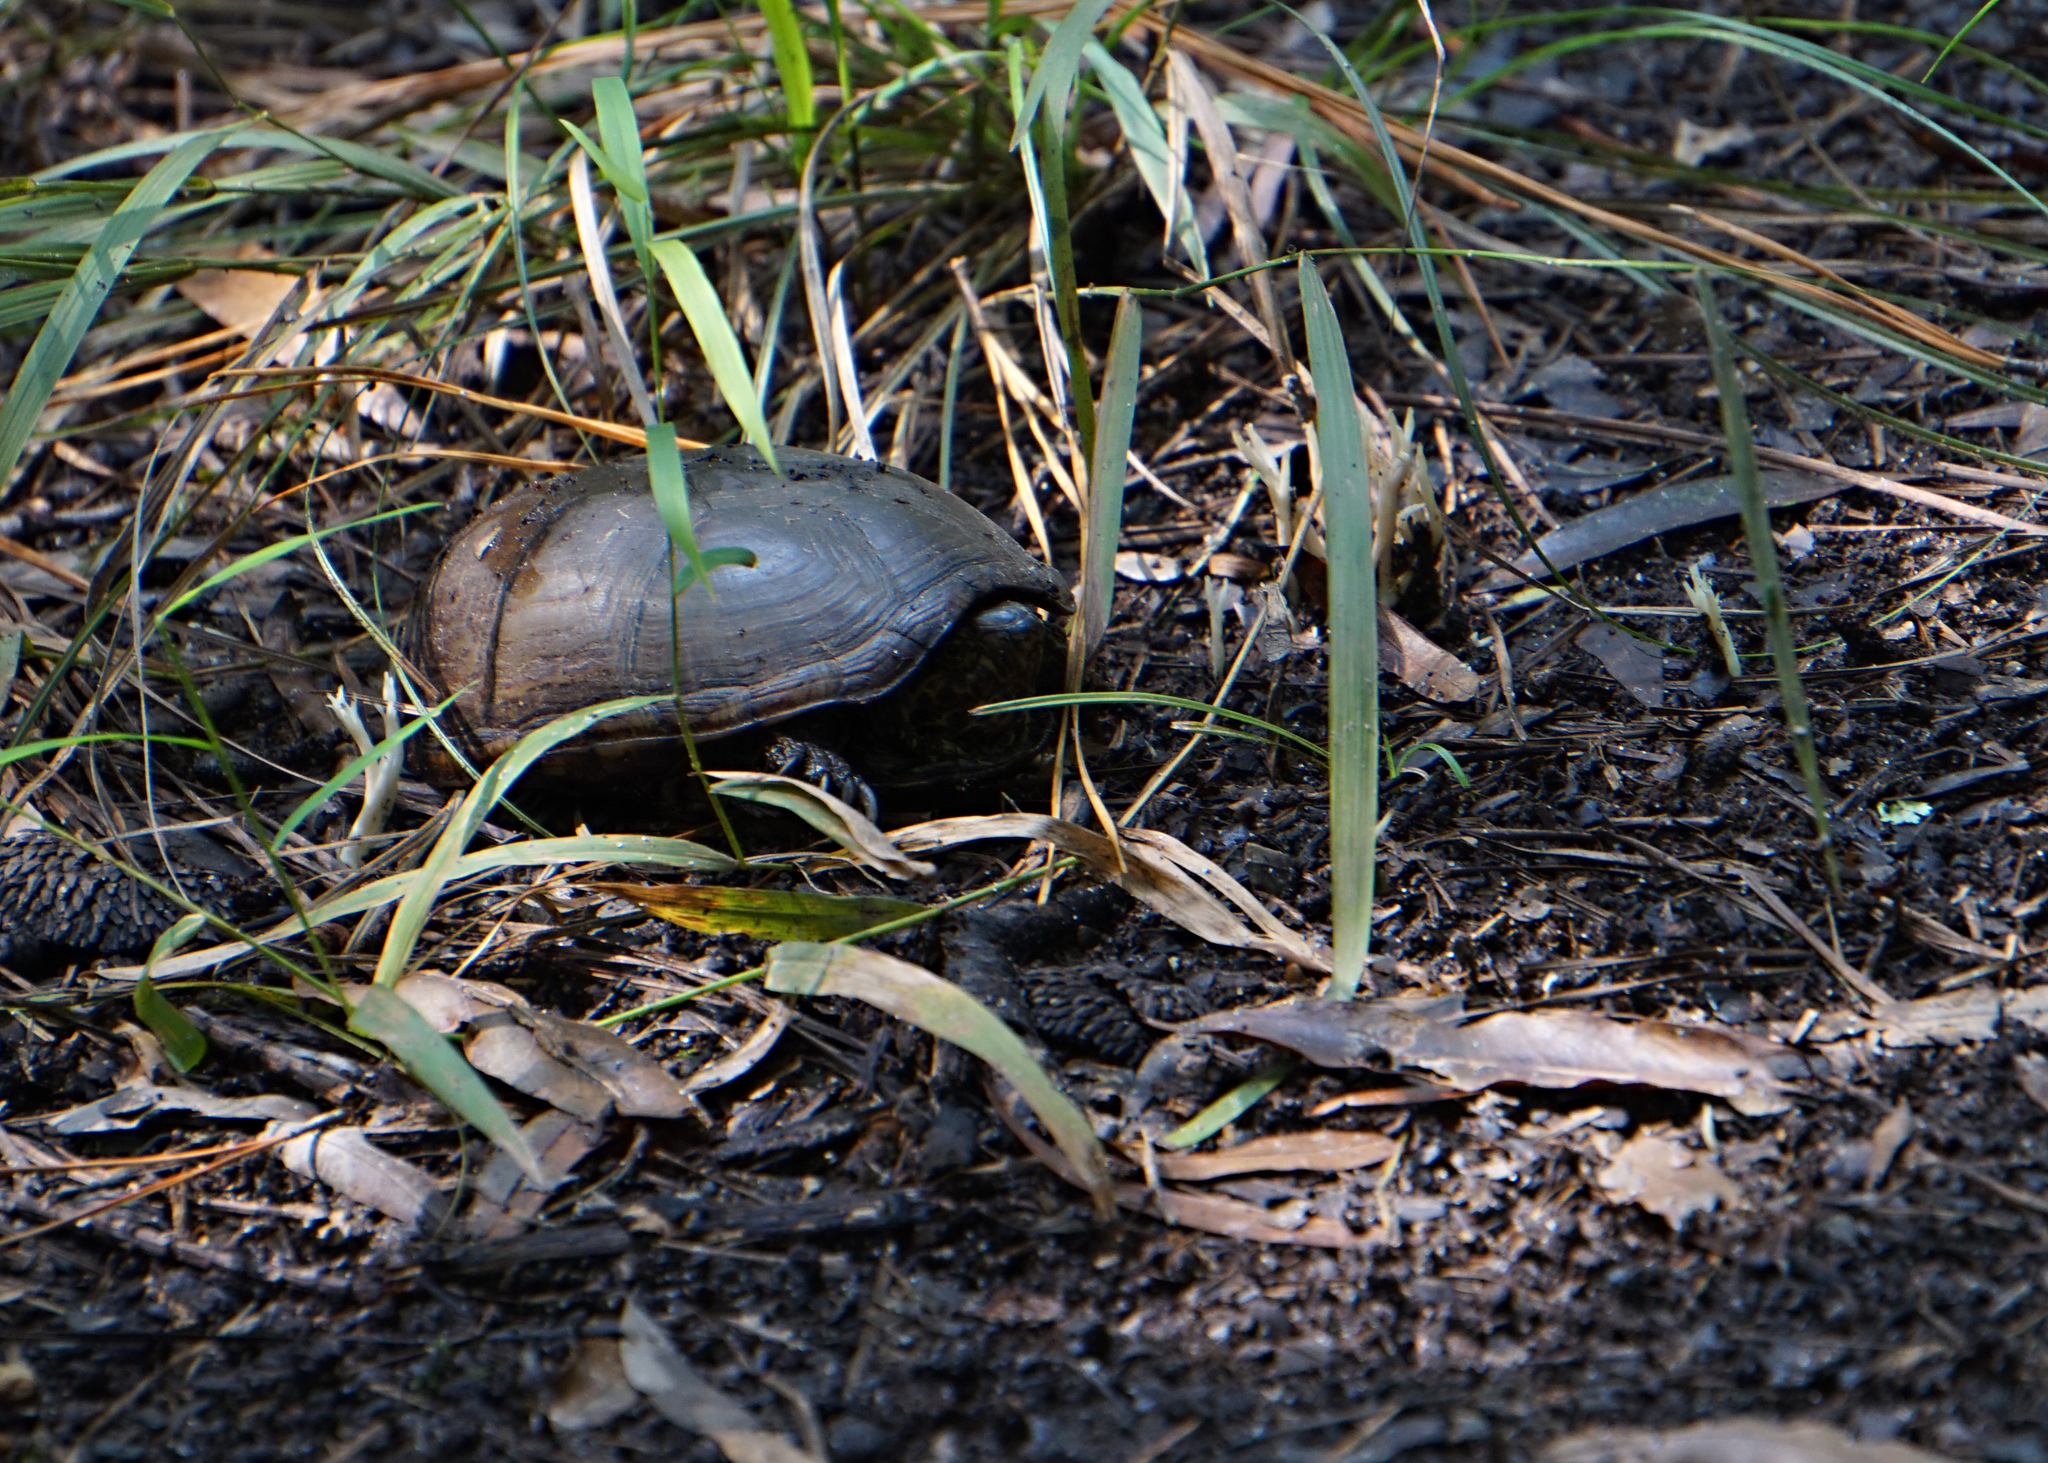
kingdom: Animalia
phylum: Chordata
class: Testudines
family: Kinosternidae
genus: Kinosternon
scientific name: Kinosternon subrubrum
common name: Eastern mud turtle
